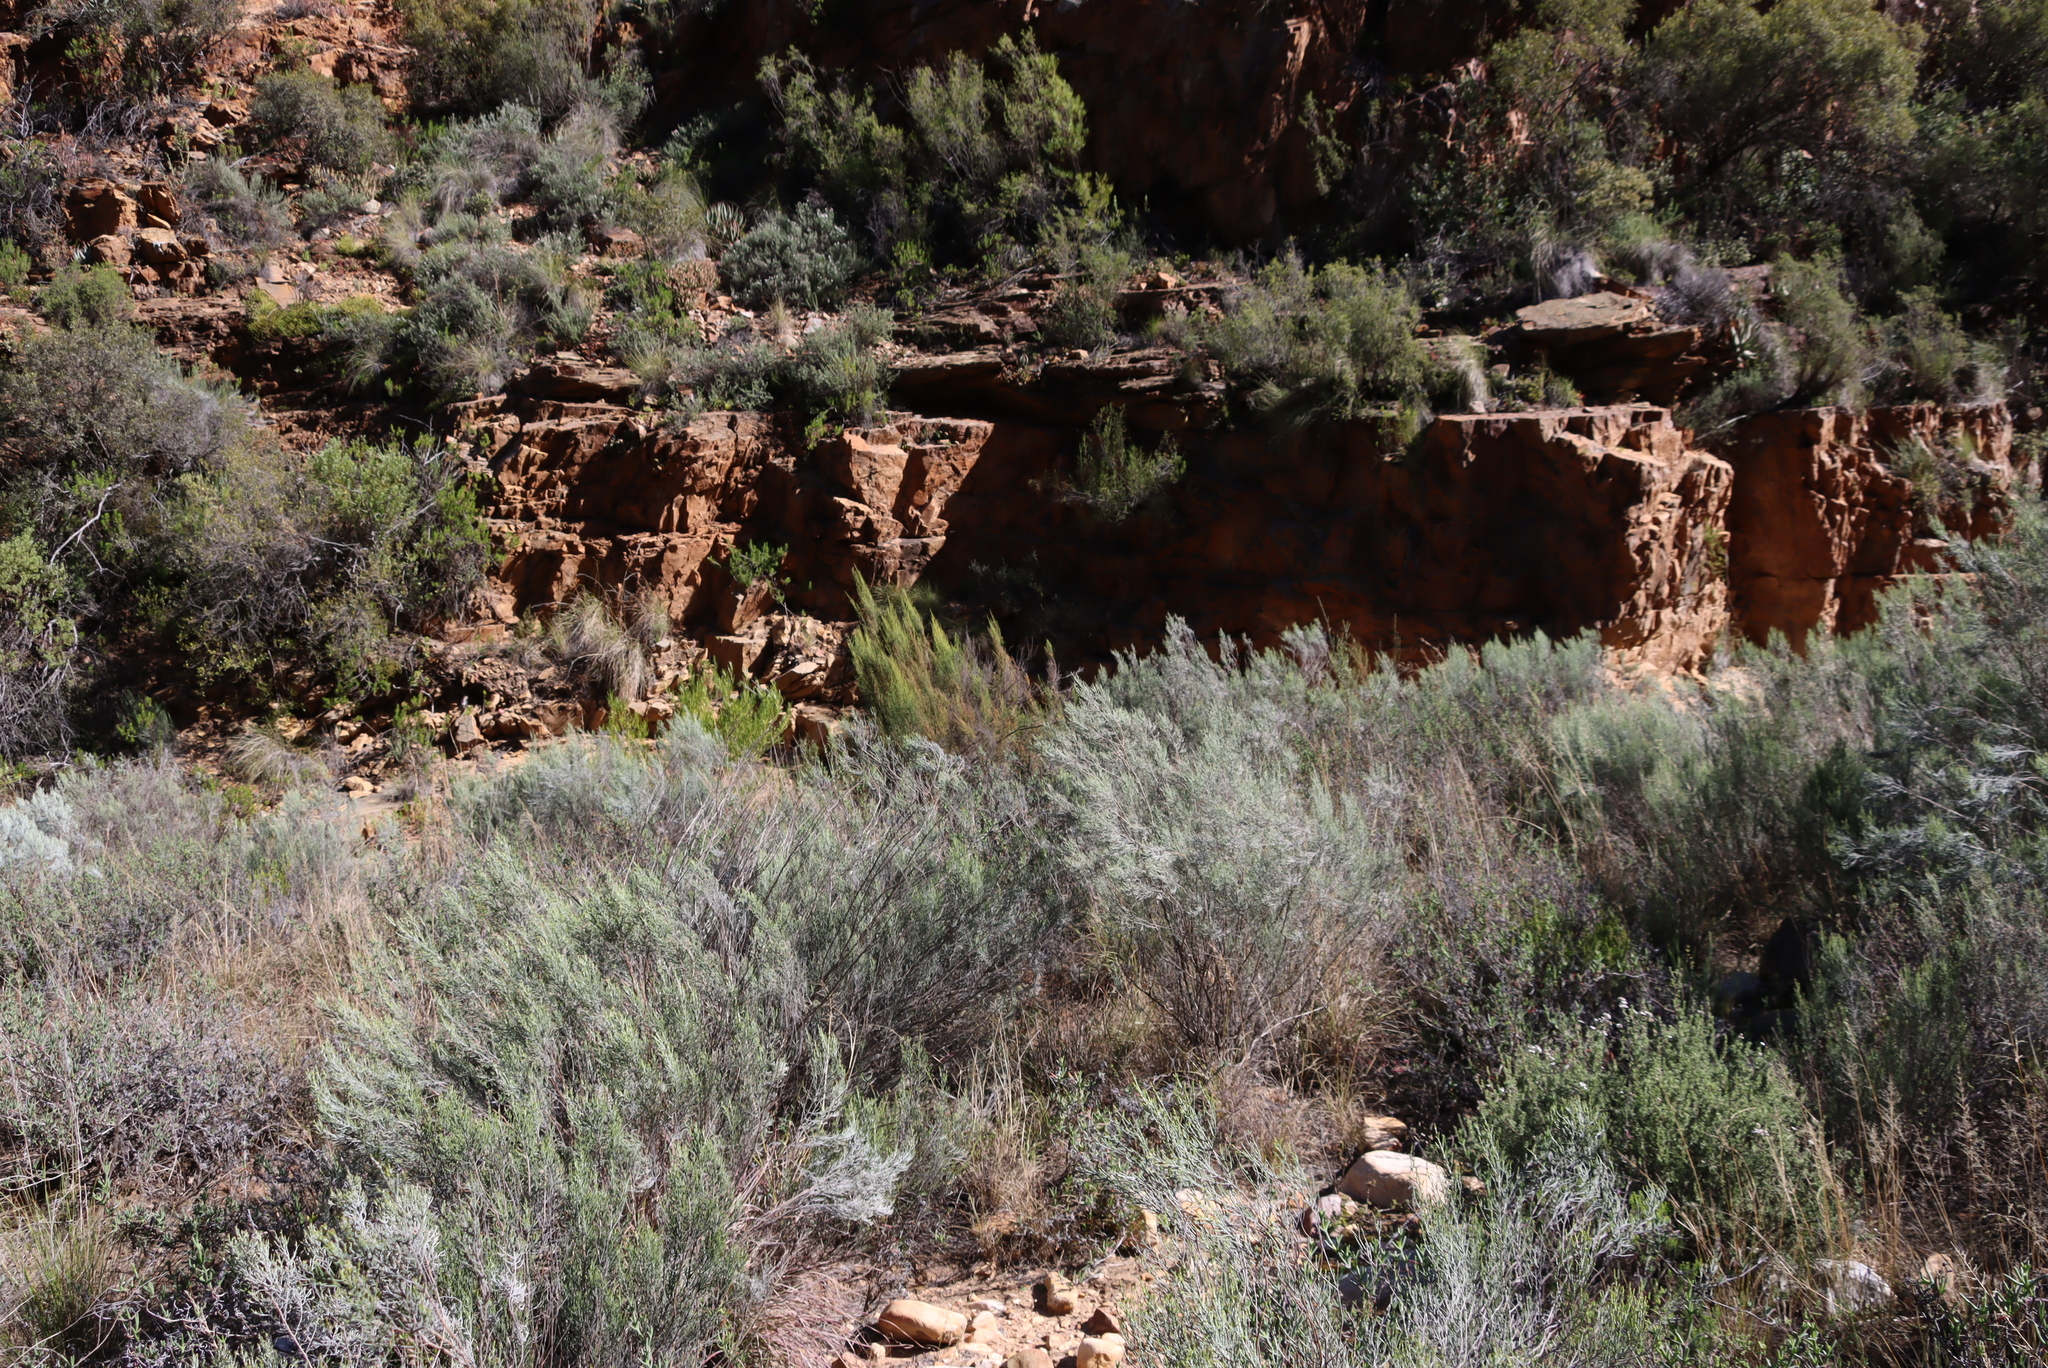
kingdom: Plantae
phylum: Tracheophyta
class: Magnoliopsida
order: Asterales
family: Asteraceae
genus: Dicerothamnus
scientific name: Dicerothamnus rhinocerotis
